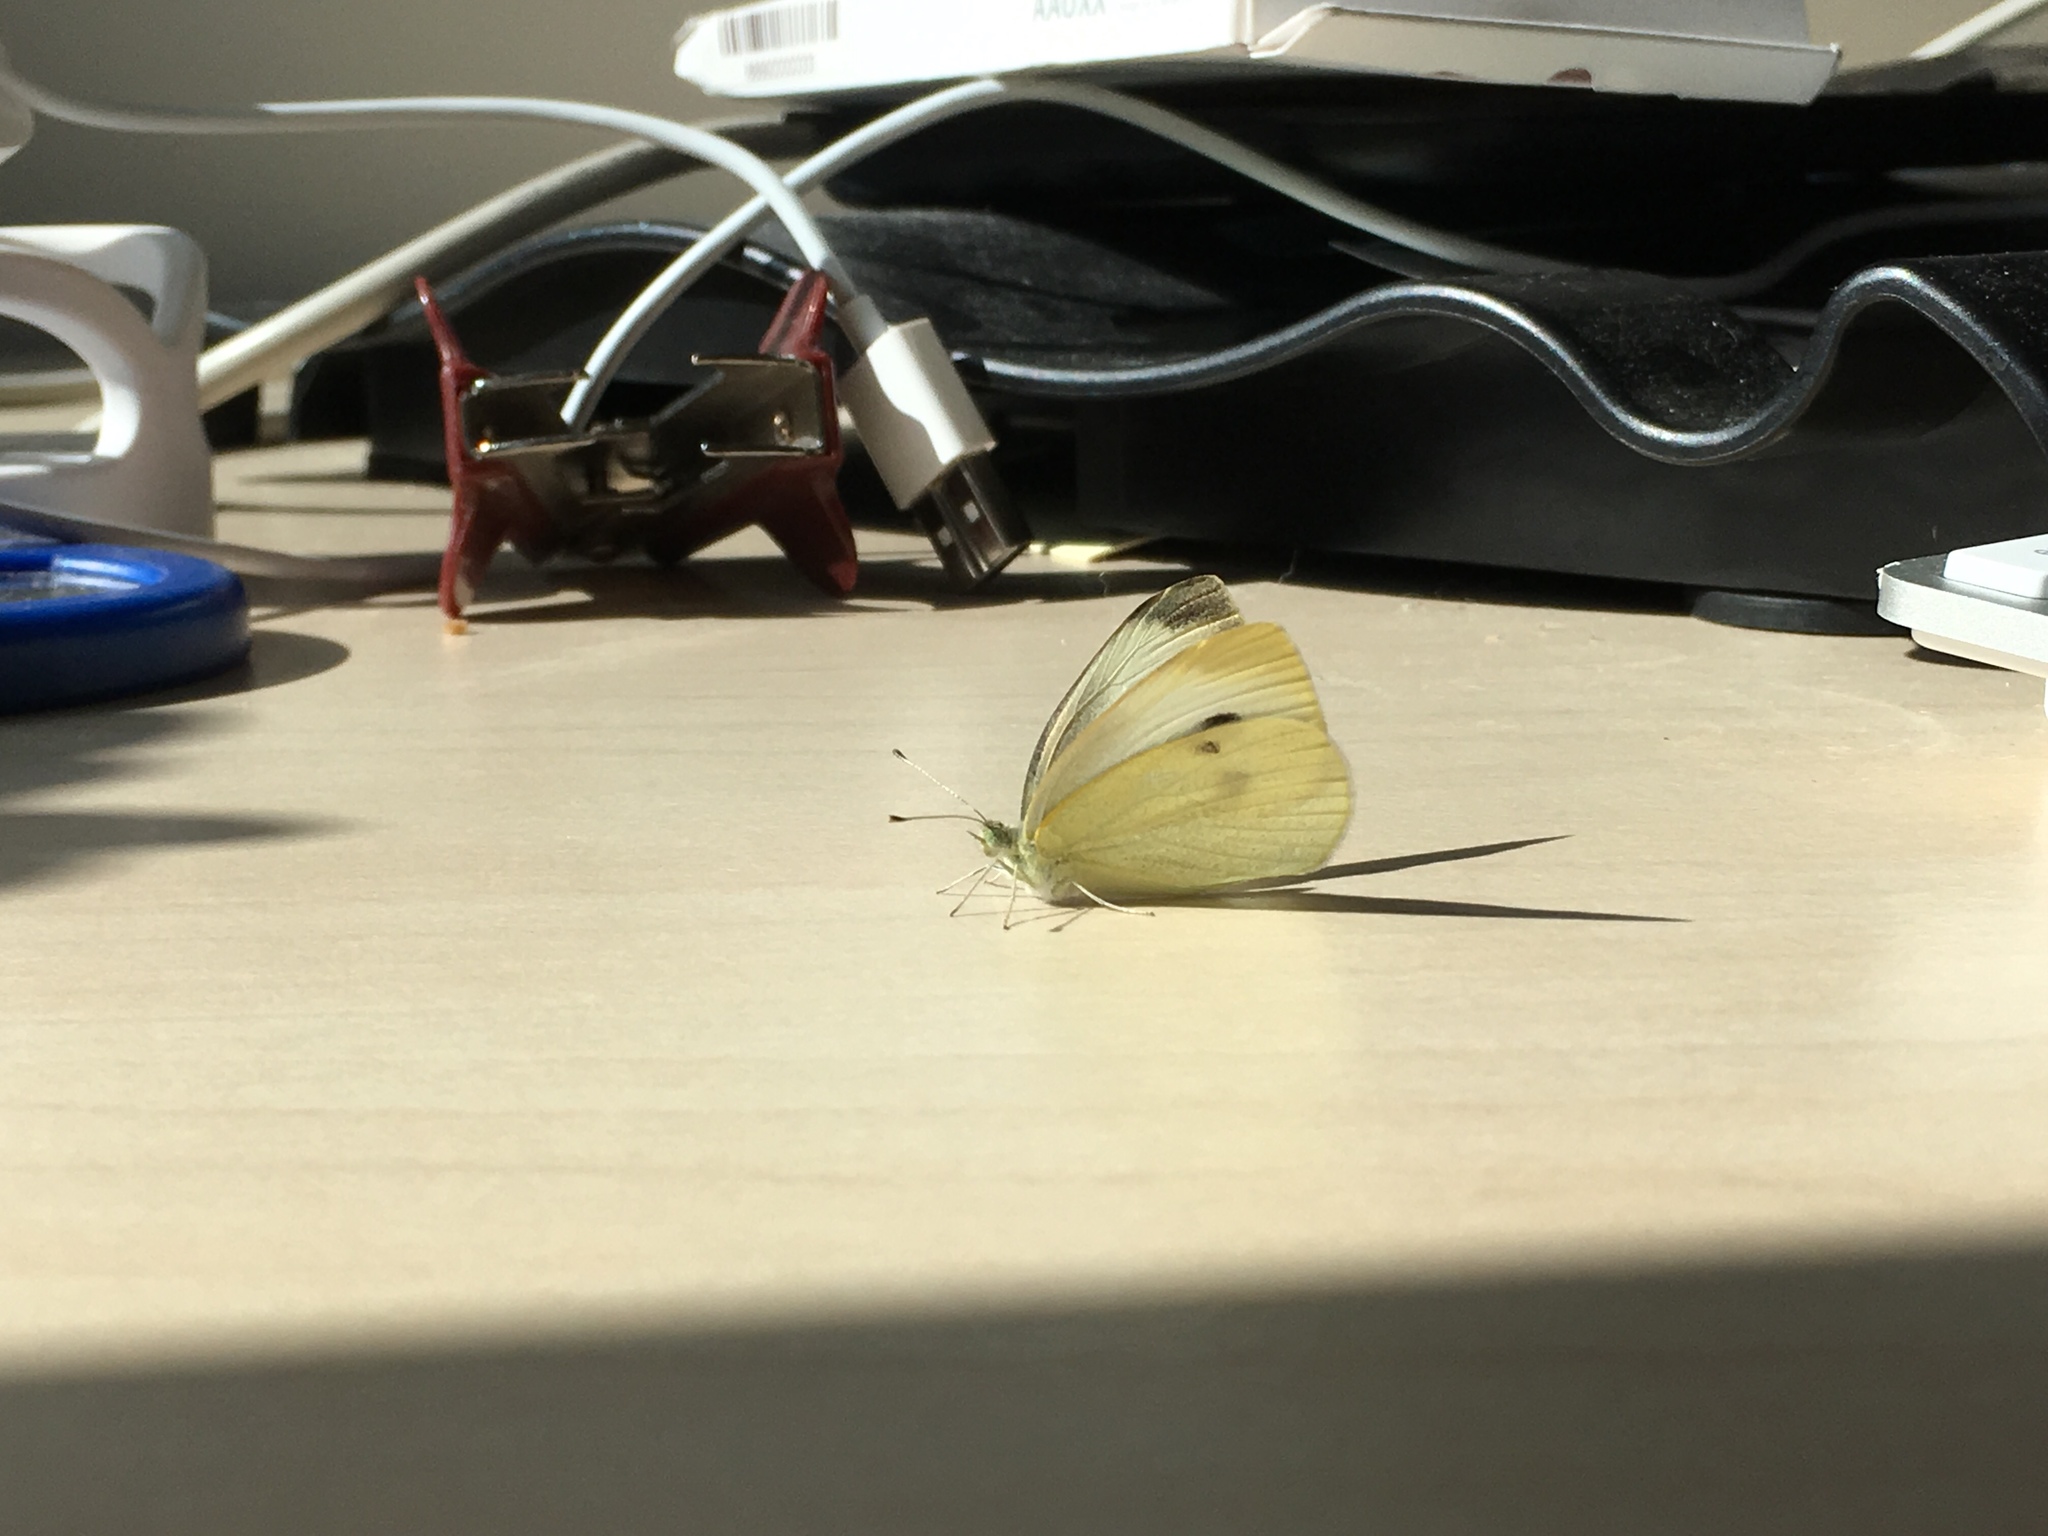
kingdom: Animalia
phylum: Arthropoda
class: Insecta
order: Lepidoptera
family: Pieridae
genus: Pieris
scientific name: Pieris rapae
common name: Small white
